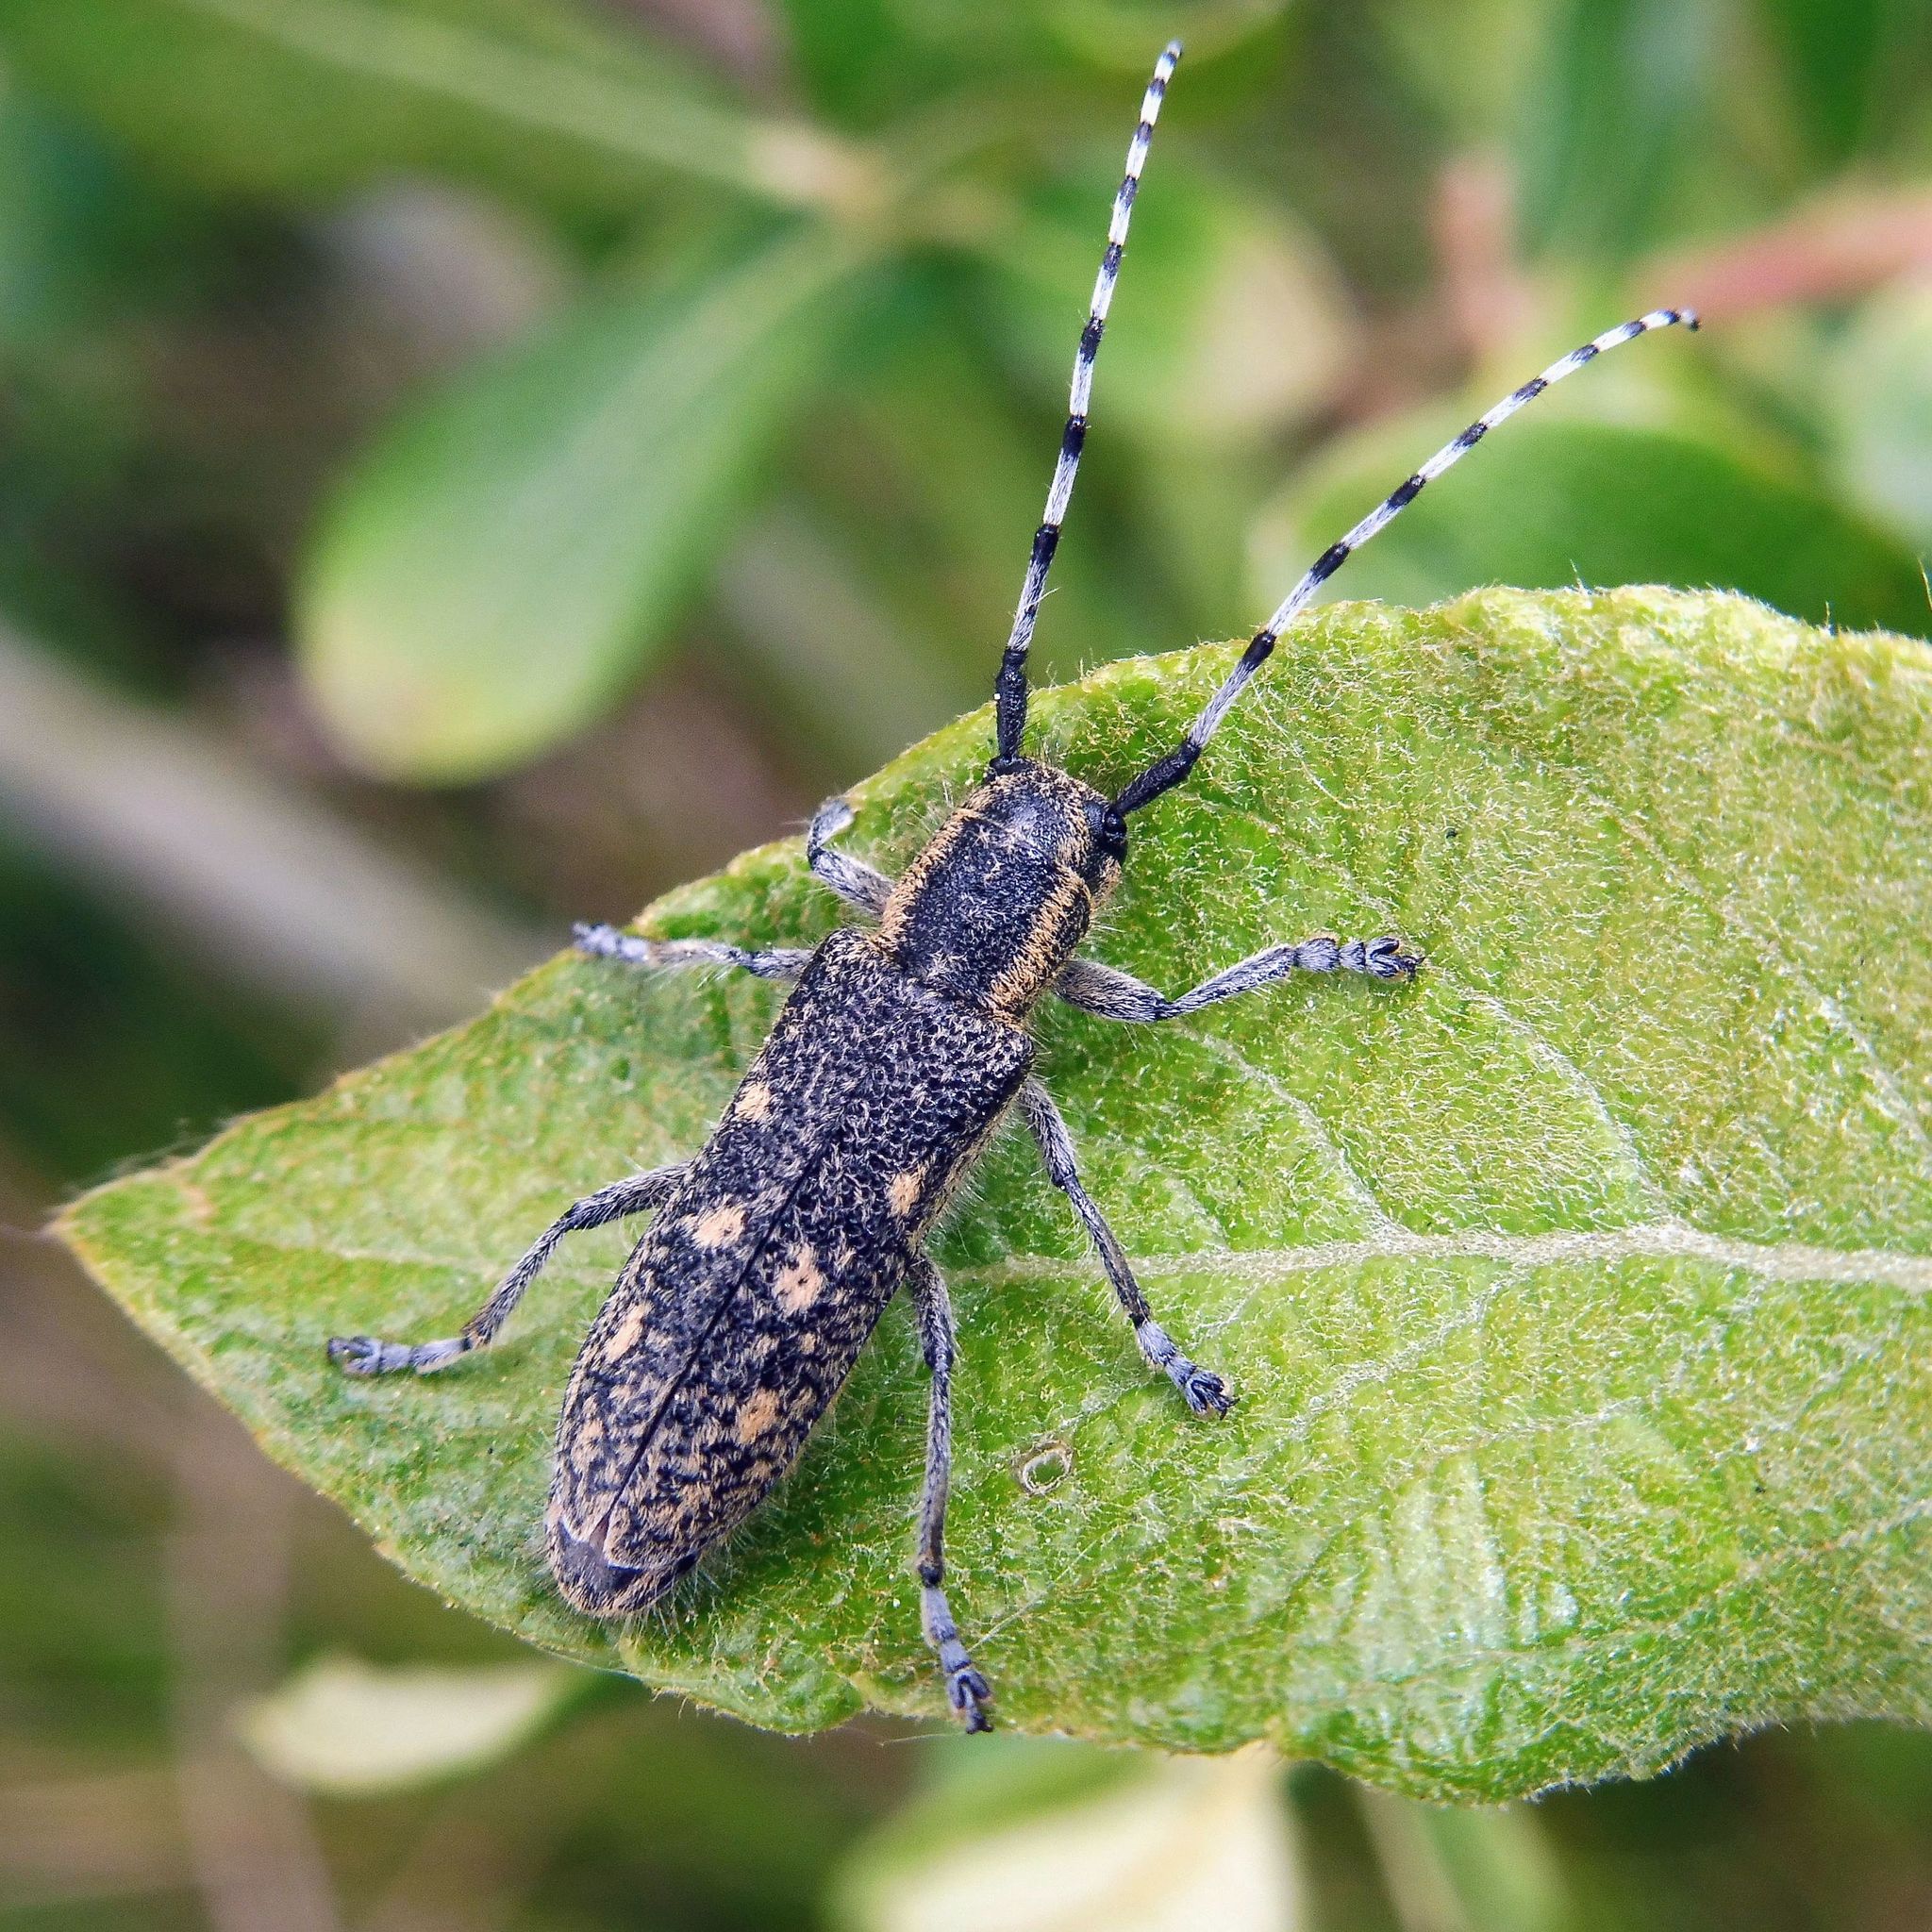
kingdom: Animalia
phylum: Arthropoda
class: Insecta
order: Coleoptera
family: Cerambycidae
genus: Saperda
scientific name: Saperda populnea
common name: Small poplar borer
